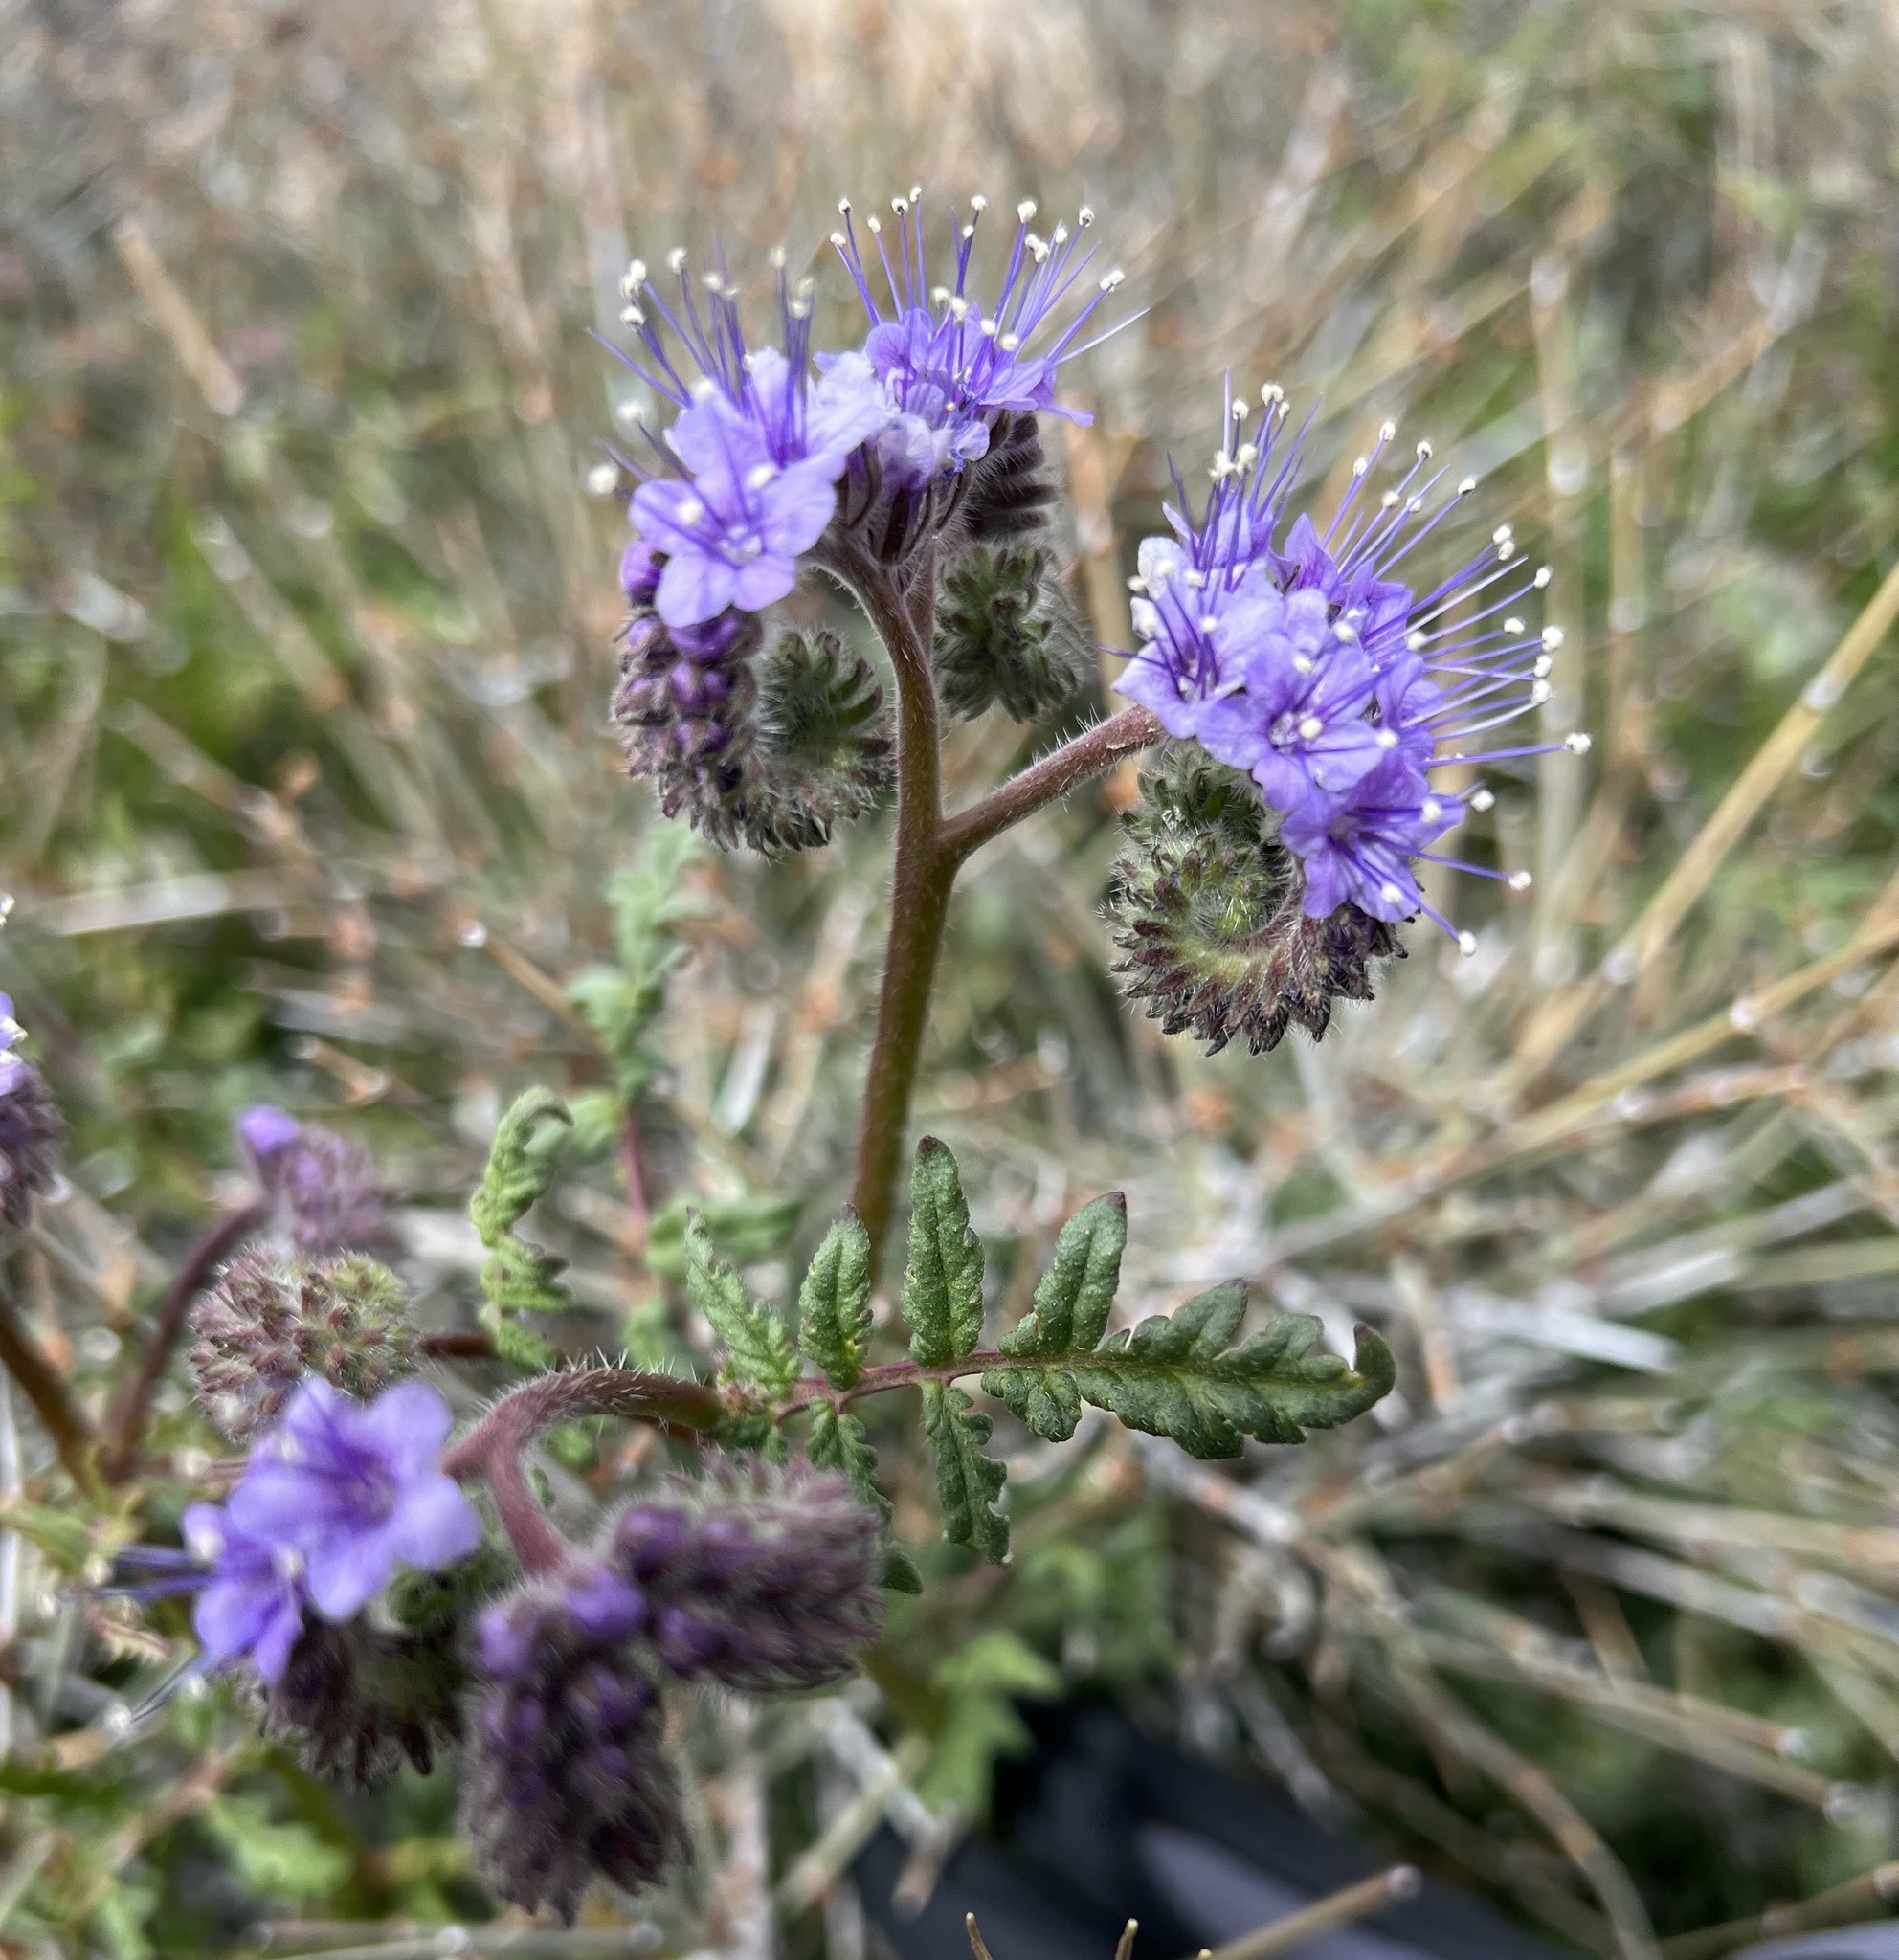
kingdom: Plantae
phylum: Tracheophyta
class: Magnoliopsida
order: Boraginales
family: Hydrophyllaceae
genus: Phacelia
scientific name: Phacelia tanacetifolia
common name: Phacelia
